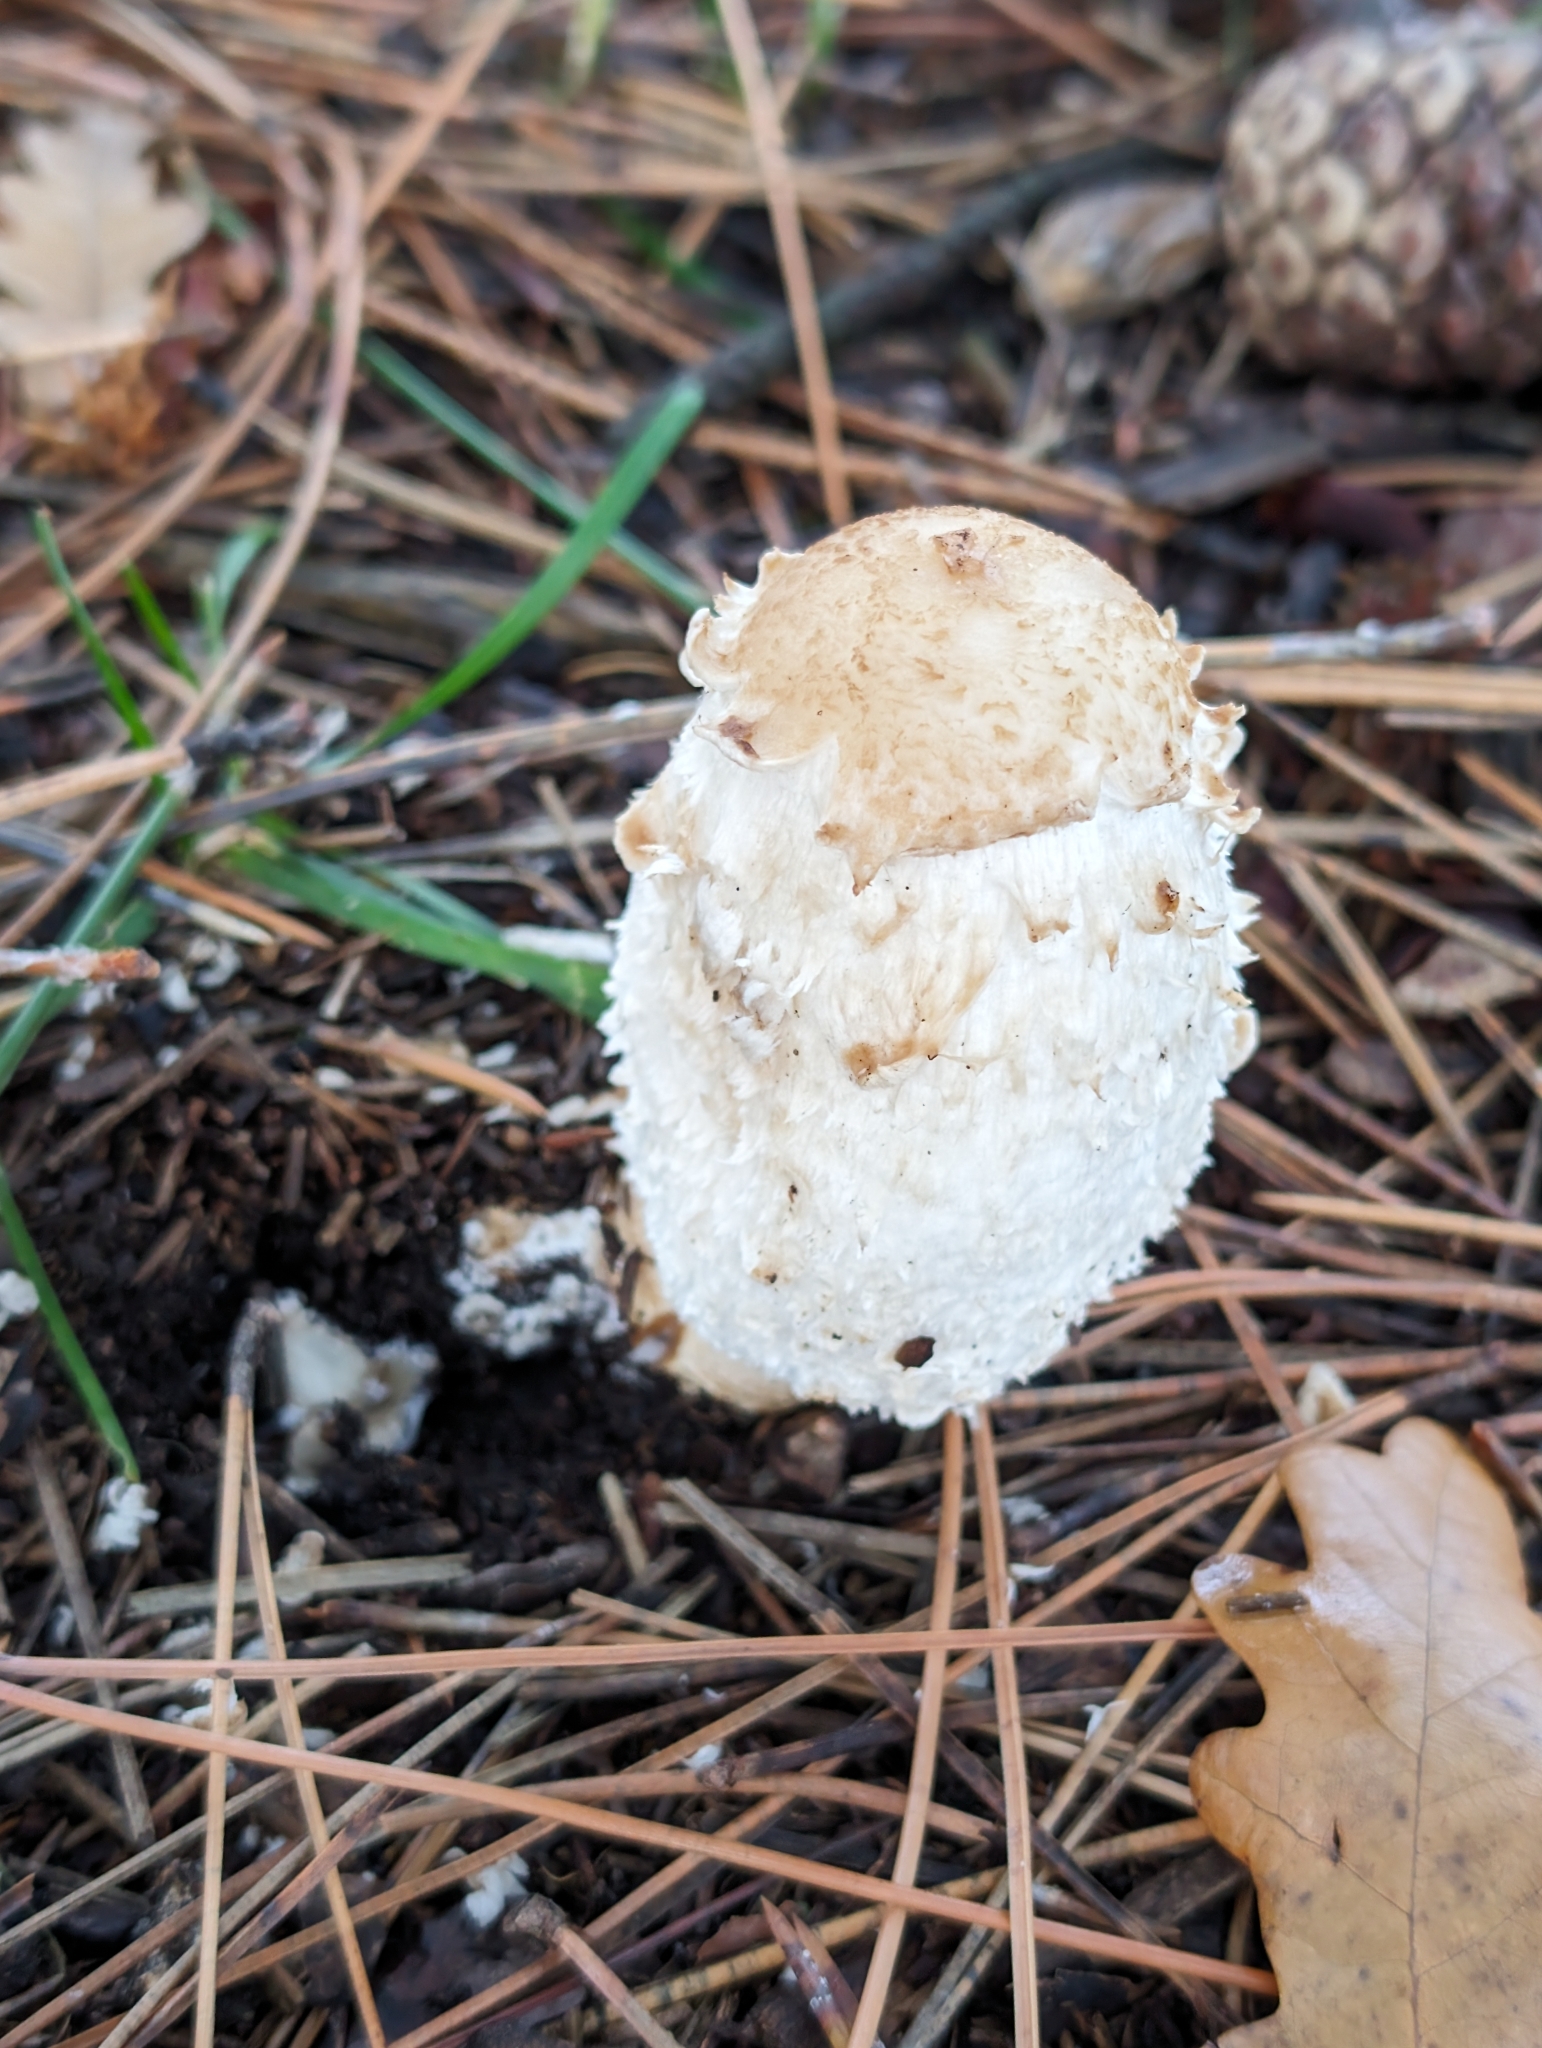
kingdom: Fungi
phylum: Basidiomycota
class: Agaricomycetes
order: Agaricales
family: Agaricaceae
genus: Coprinus
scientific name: Coprinus comatus
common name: Lawyer's wig
